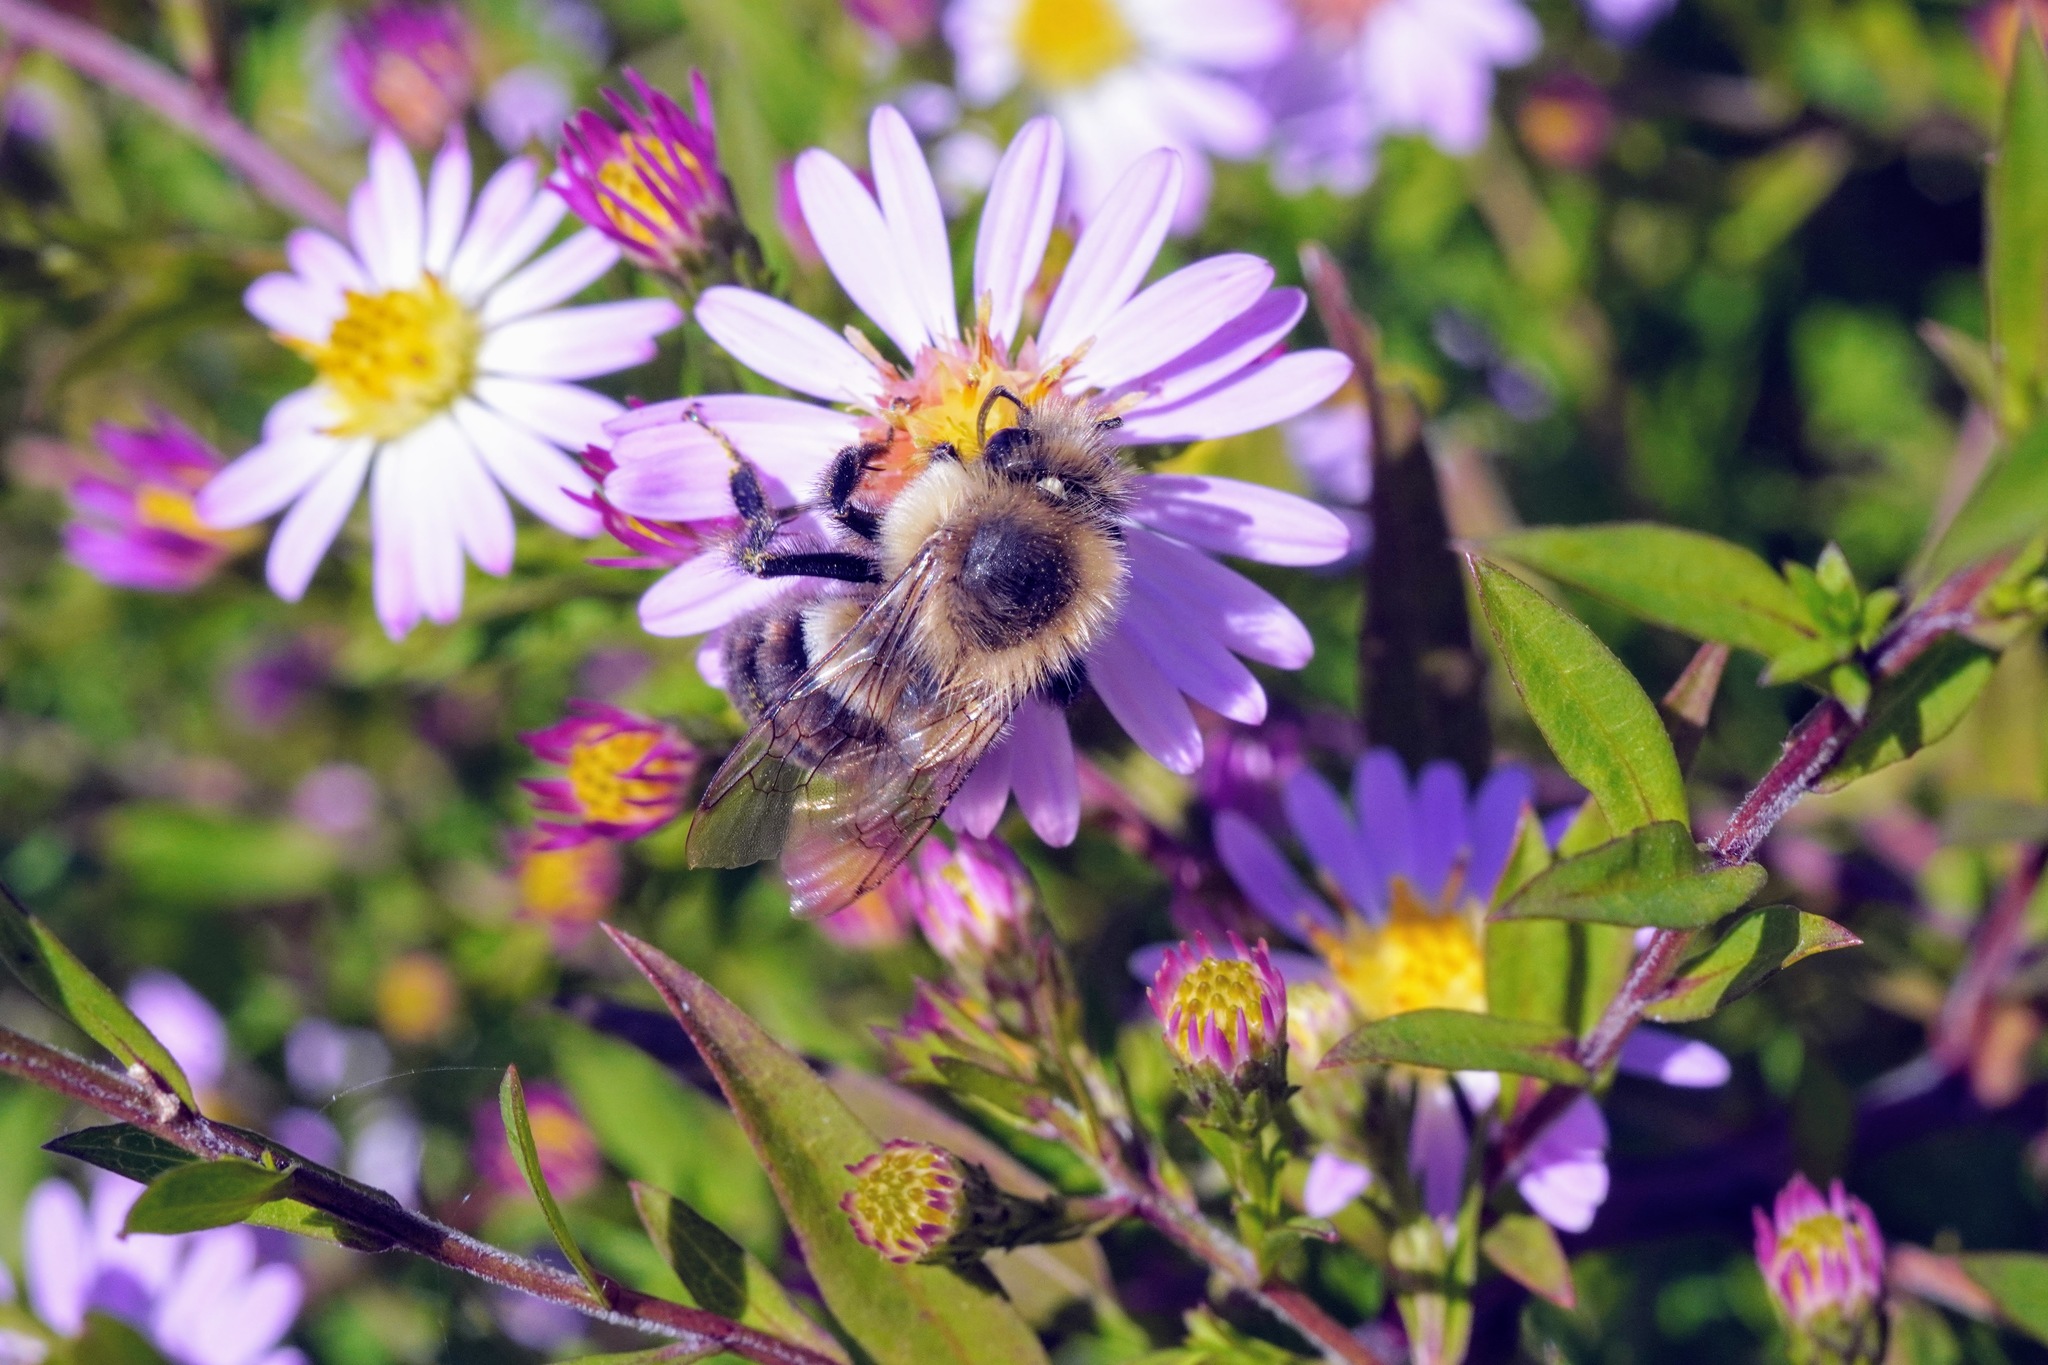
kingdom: Animalia
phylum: Arthropoda
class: Insecta
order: Hymenoptera
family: Apidae
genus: Bombus
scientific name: Bombus impatiens
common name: Common eastern bumble bee
